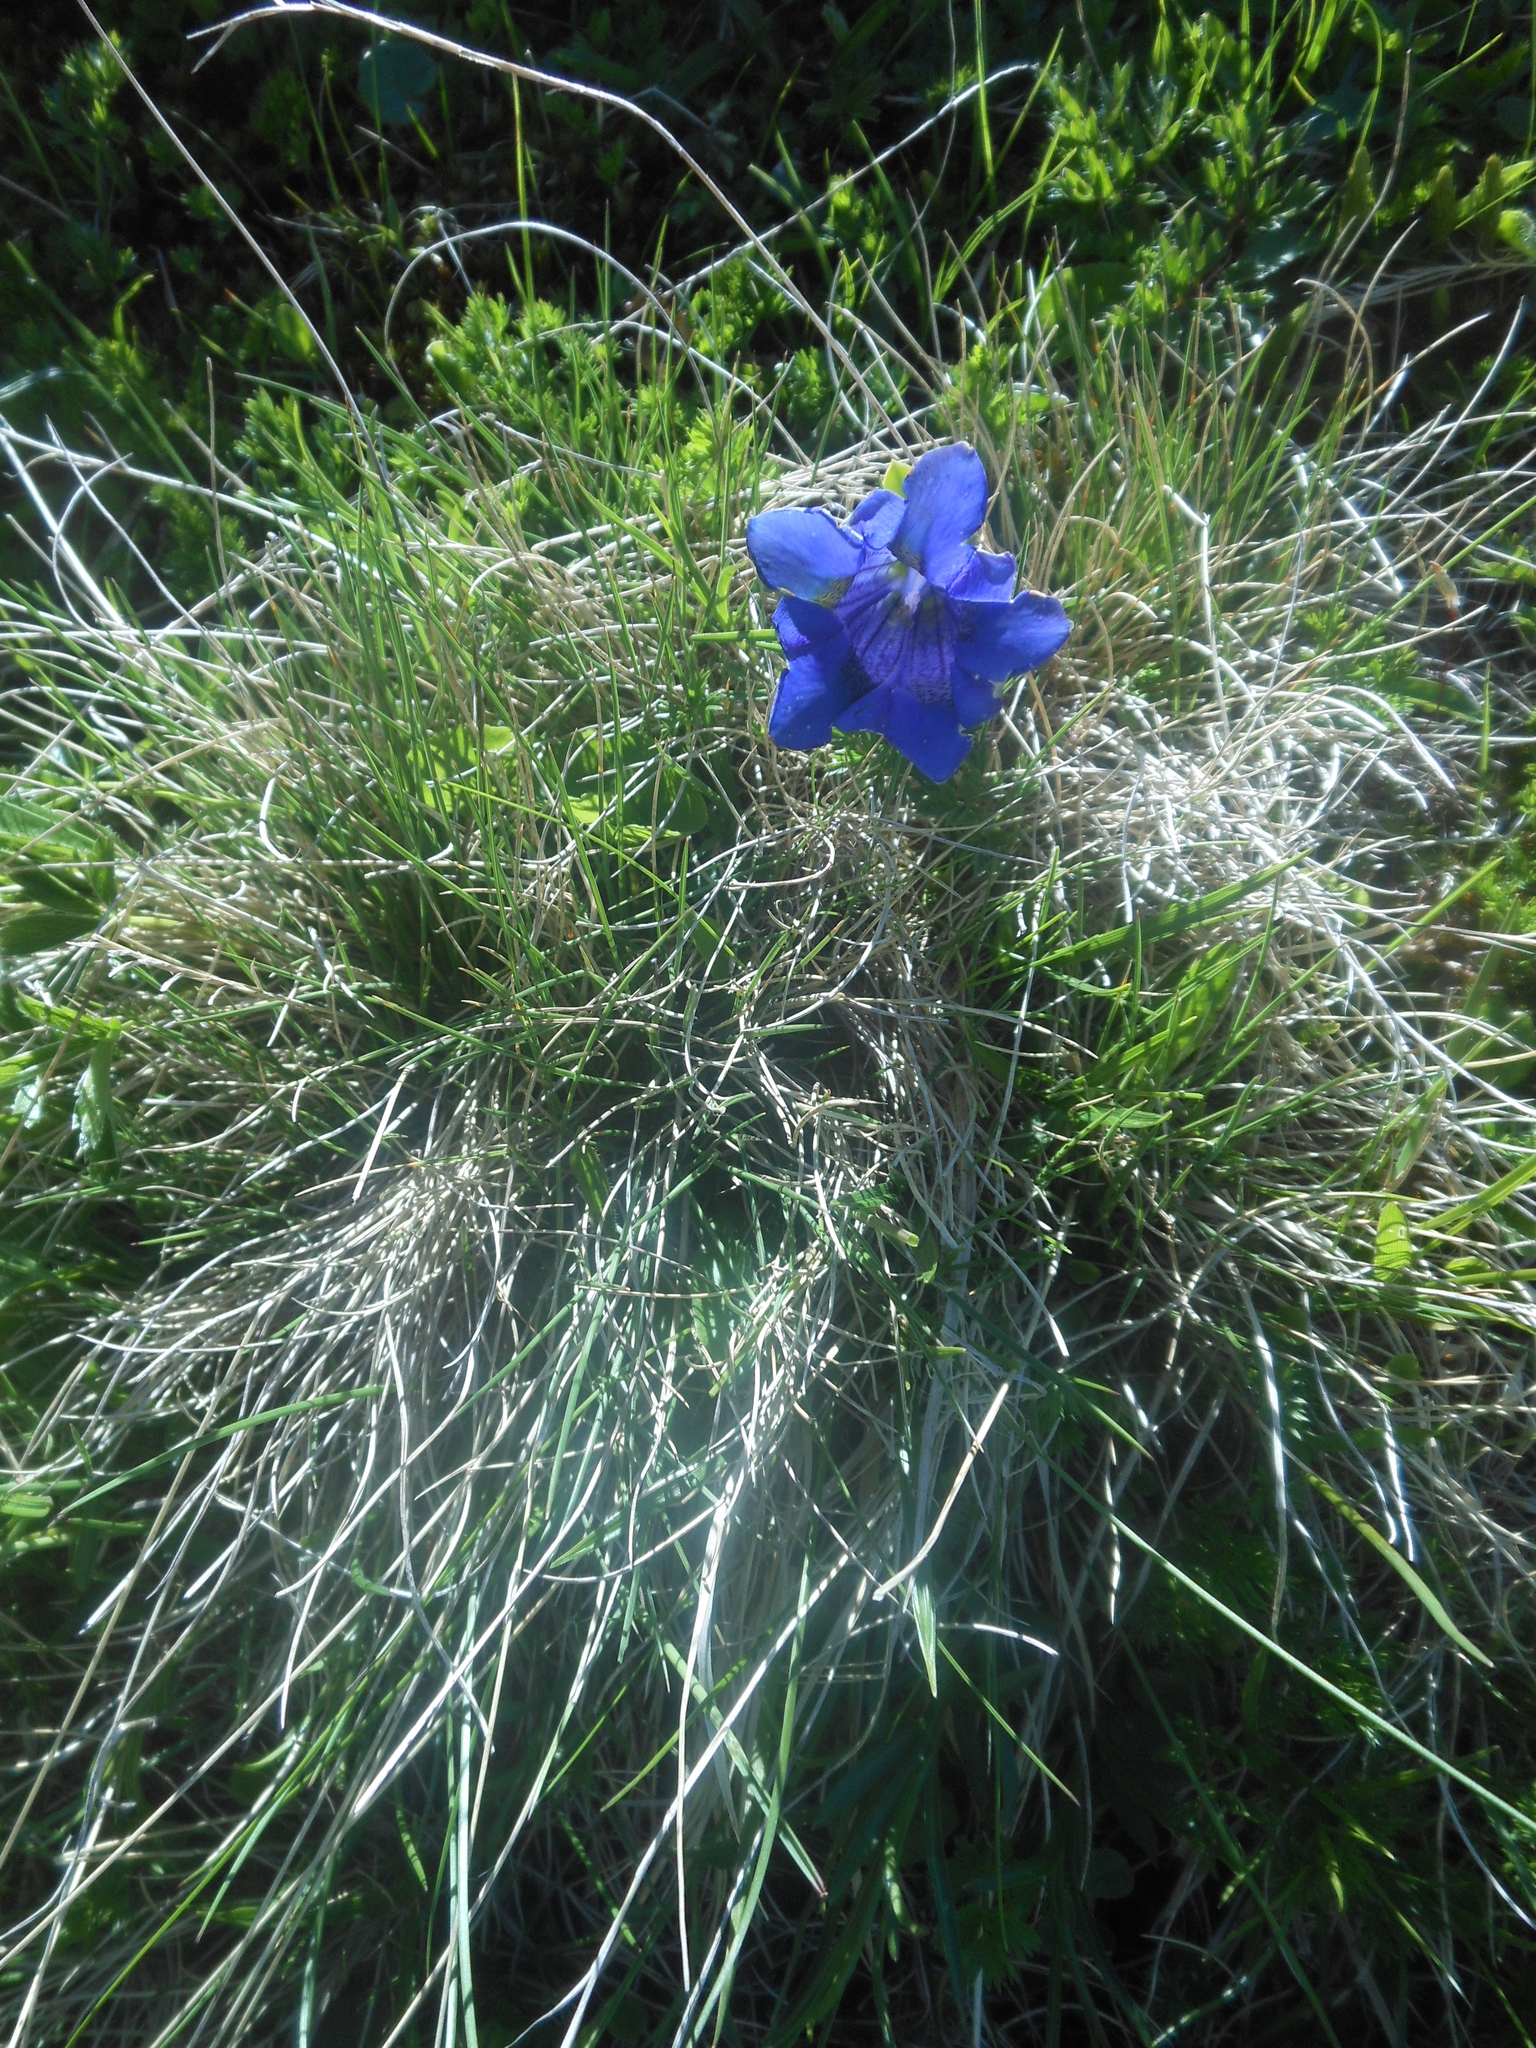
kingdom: Plantae
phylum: Tracheophyta
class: Magnoliopsida
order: Gentianales
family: Gentianaceae
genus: Gentiana
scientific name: Gentiana acaulis
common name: Trumpet gentian
